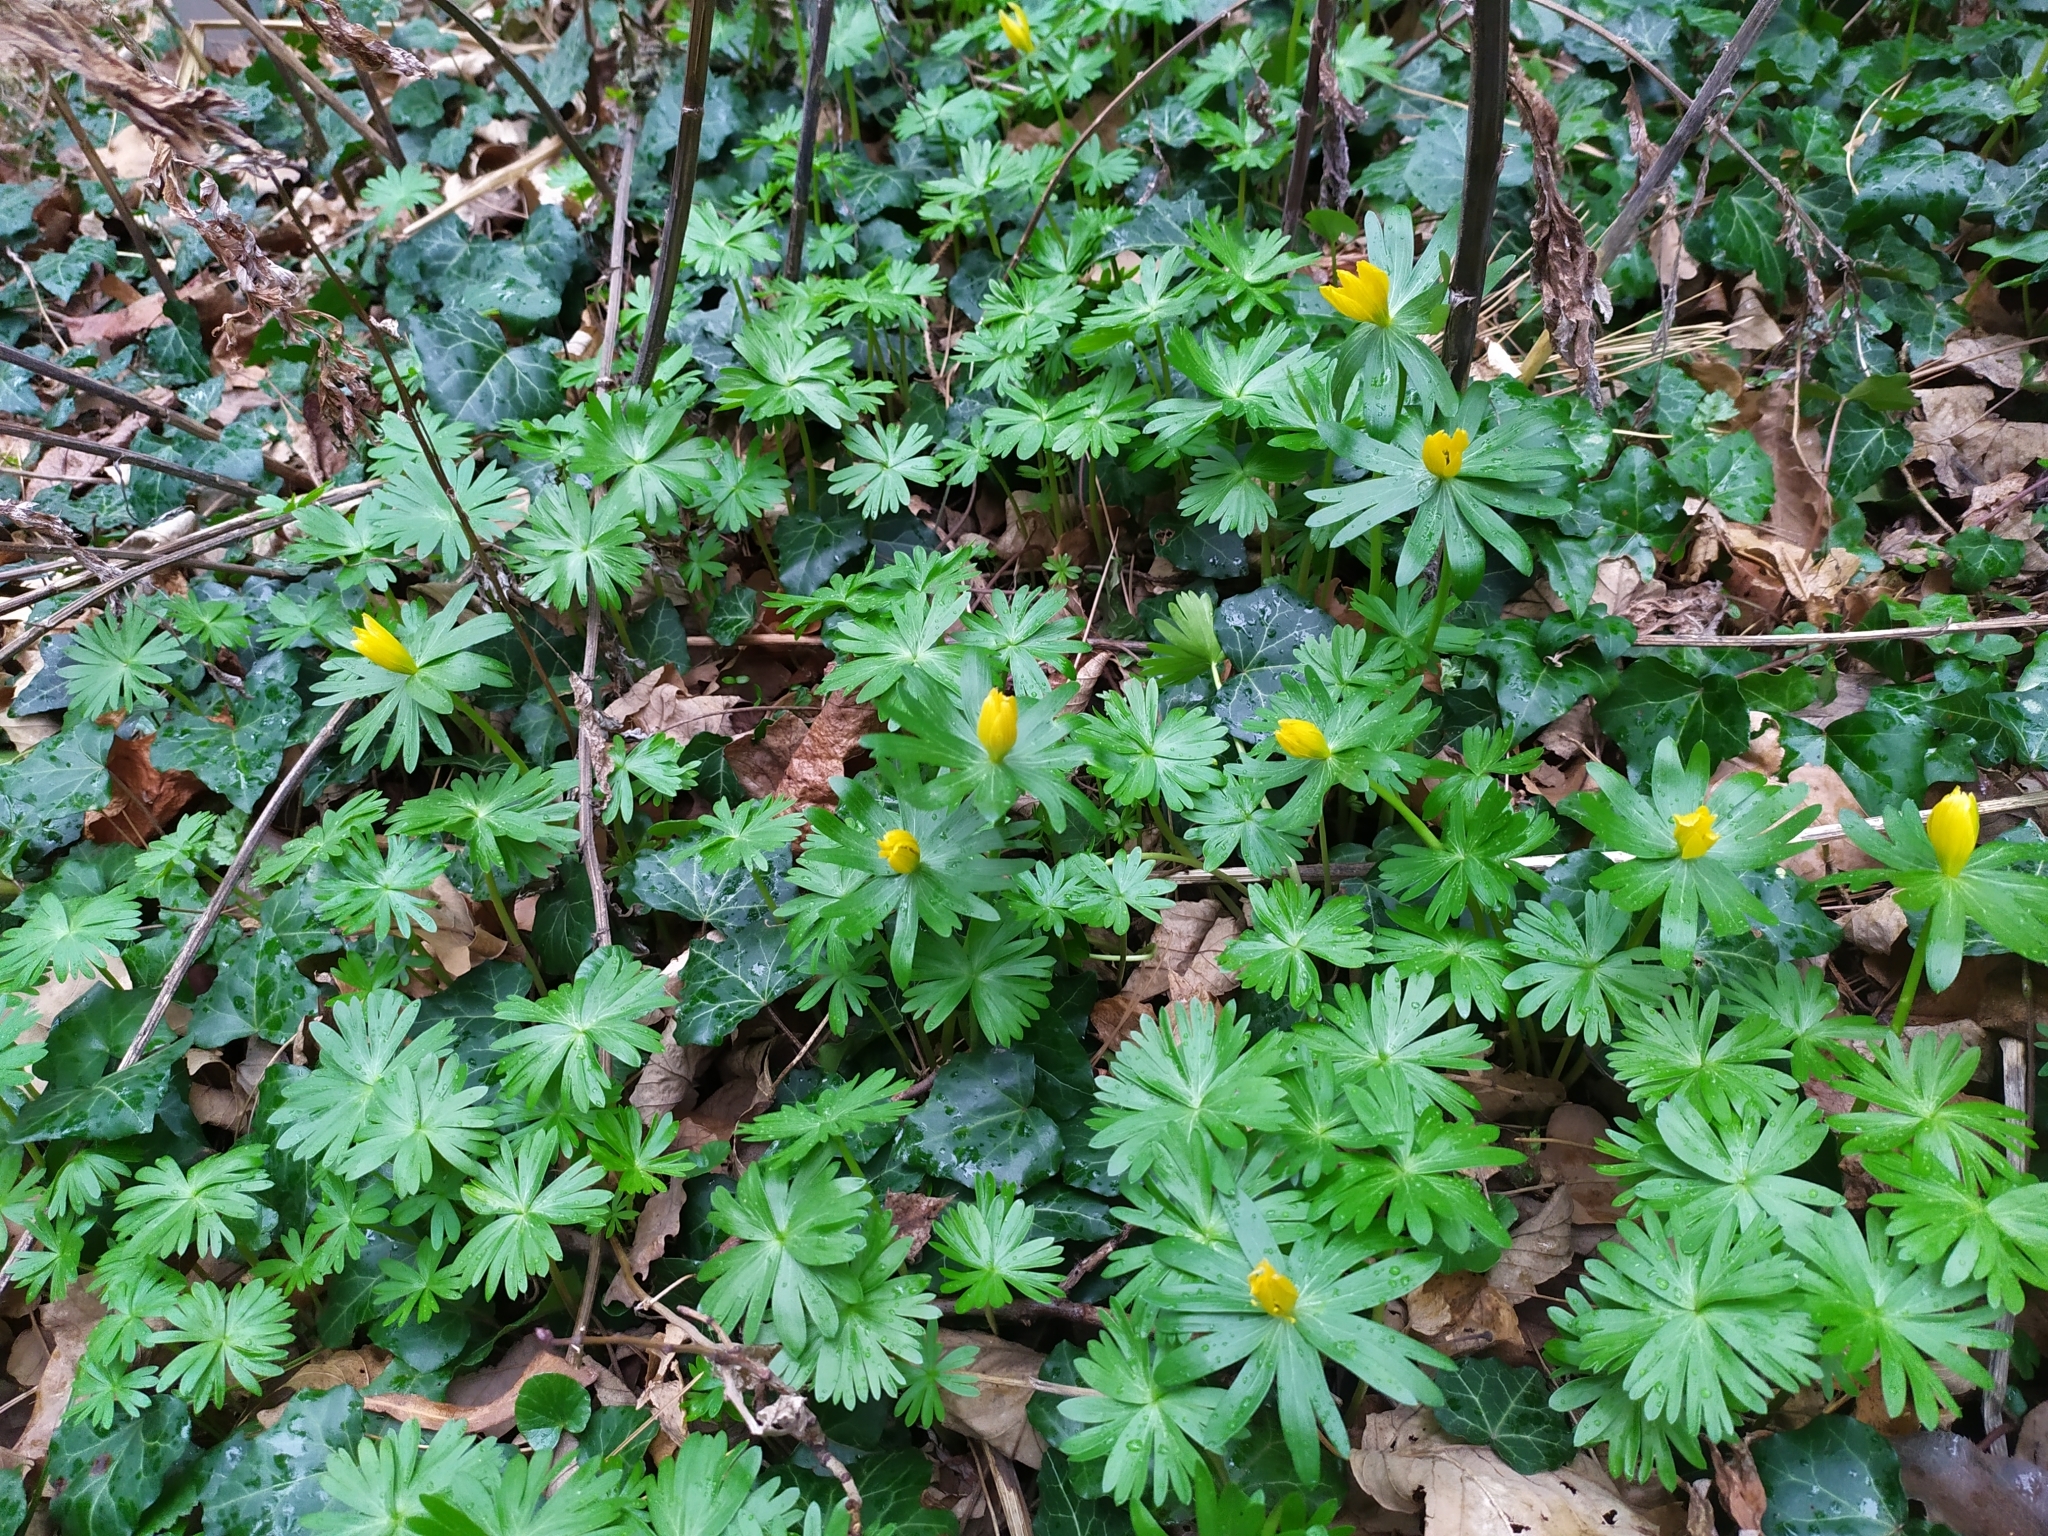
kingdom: Plantae
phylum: Tracheophyta
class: Magnoliopsida
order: Ranunculales
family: Ranunculaceae
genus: Eranthis
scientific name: Eranthis hyemalis
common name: Winter aconite
